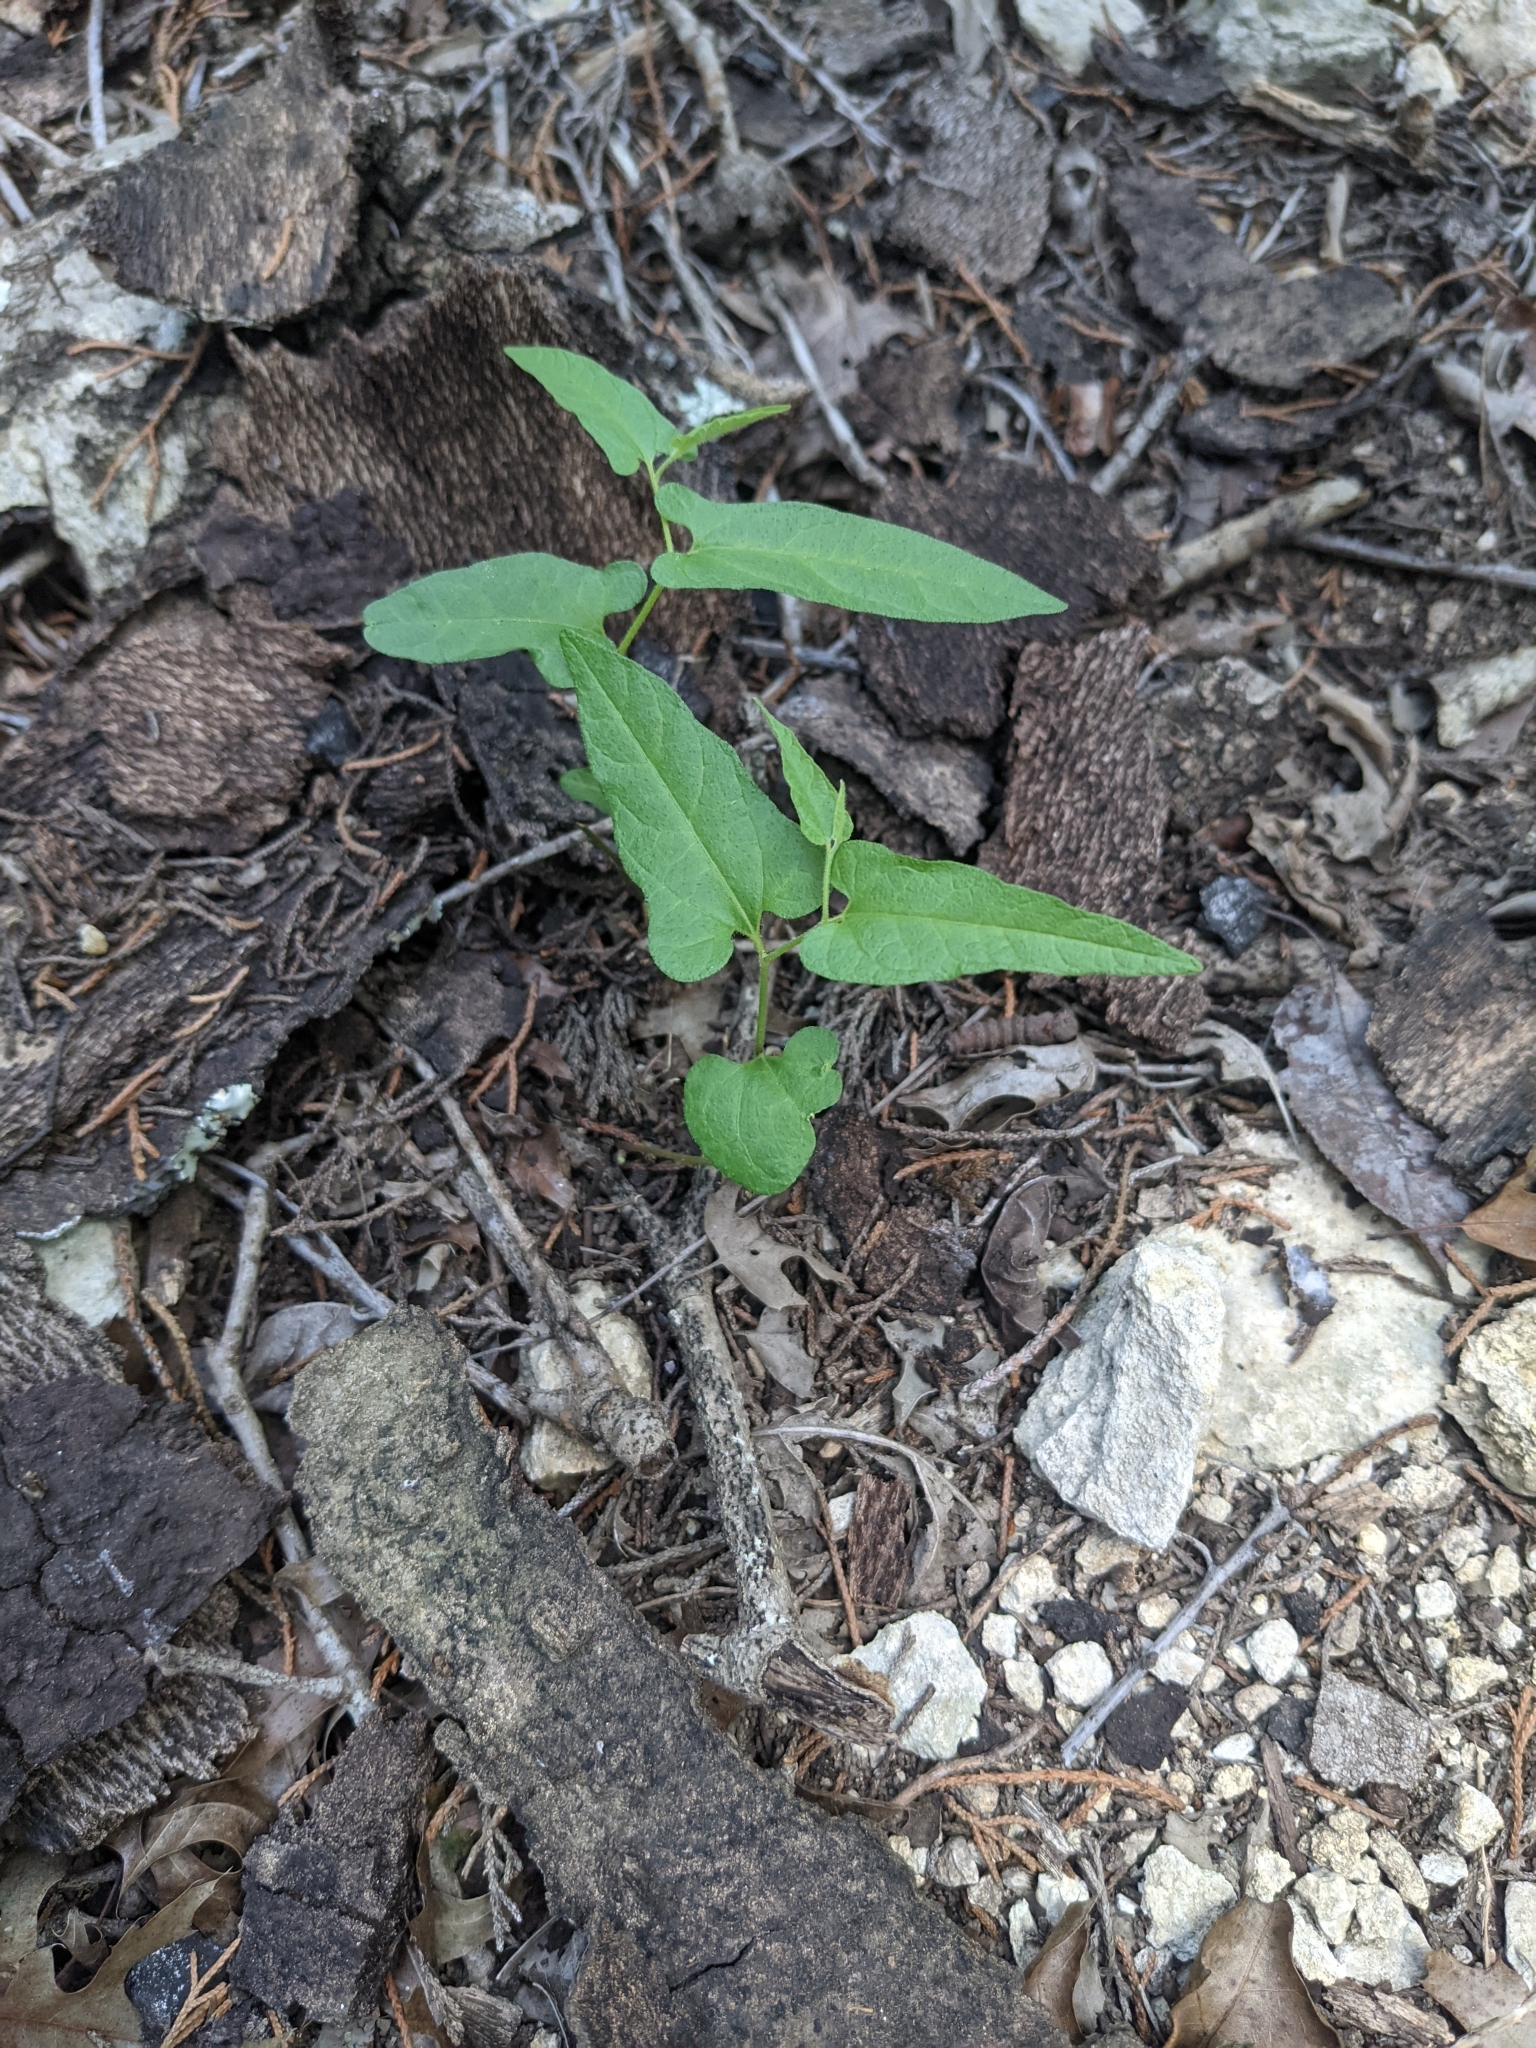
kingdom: Plantae
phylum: Tracheophyta
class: Magnoliopsida
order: Piperales
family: Aristolochiaceae
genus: Endodeca
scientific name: Endodeca serpentaria
